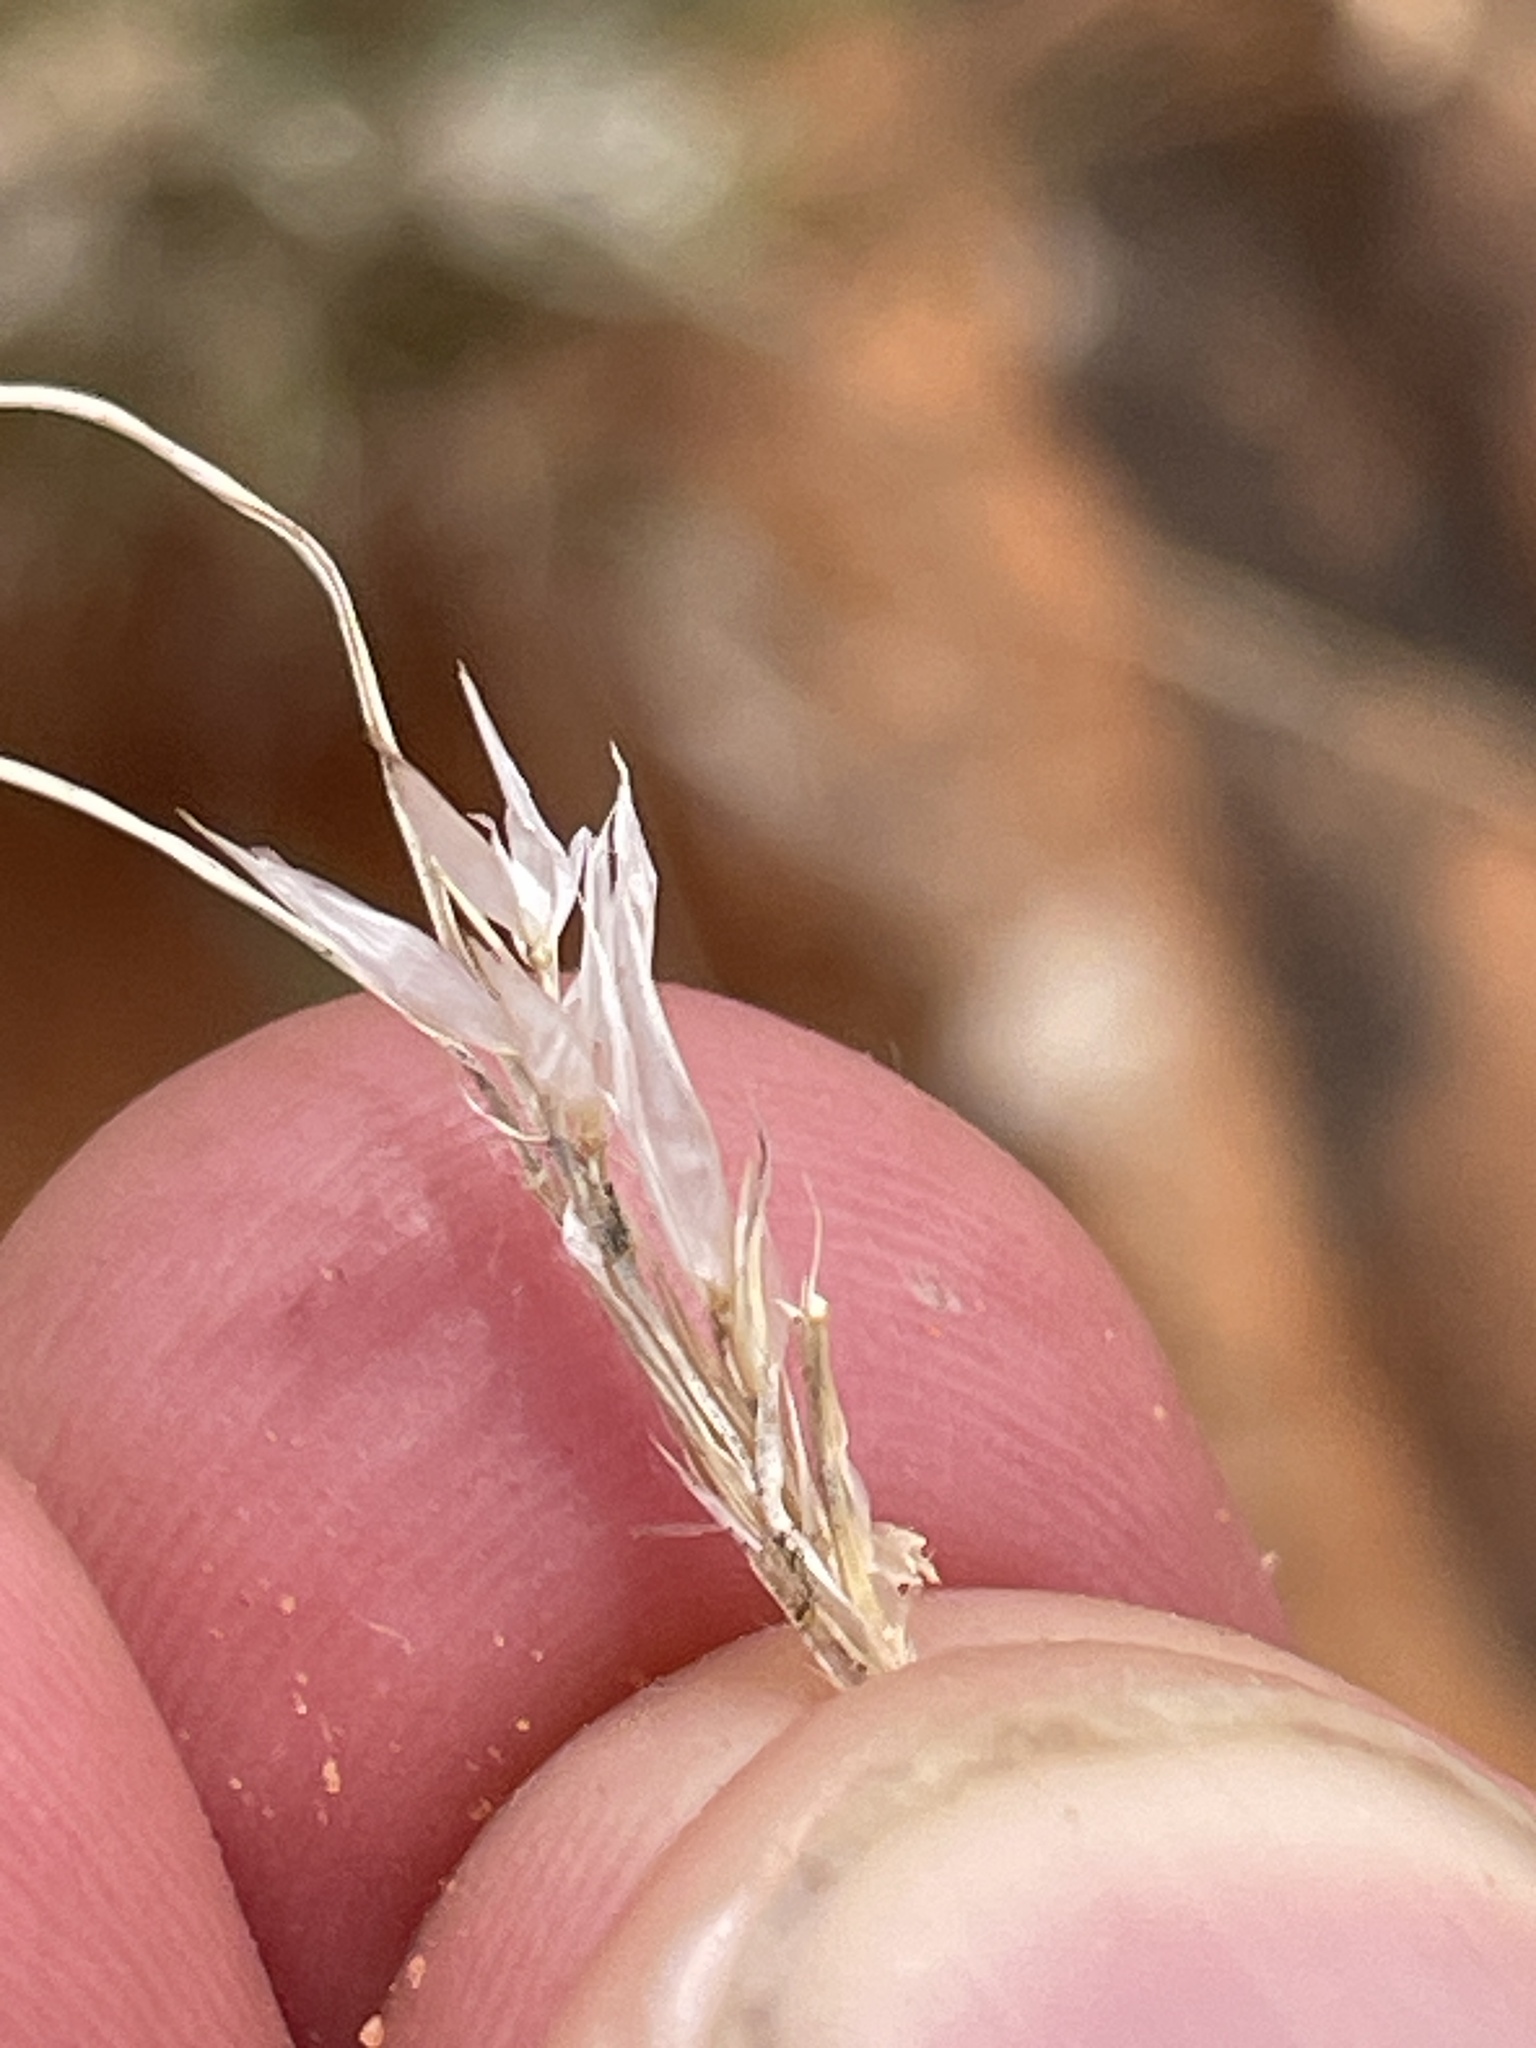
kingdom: Plantae
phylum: Tracheophyta
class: Liliopsida
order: Poales
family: Poaceae
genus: Dasyochloa
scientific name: Dasyochloa pulchella
